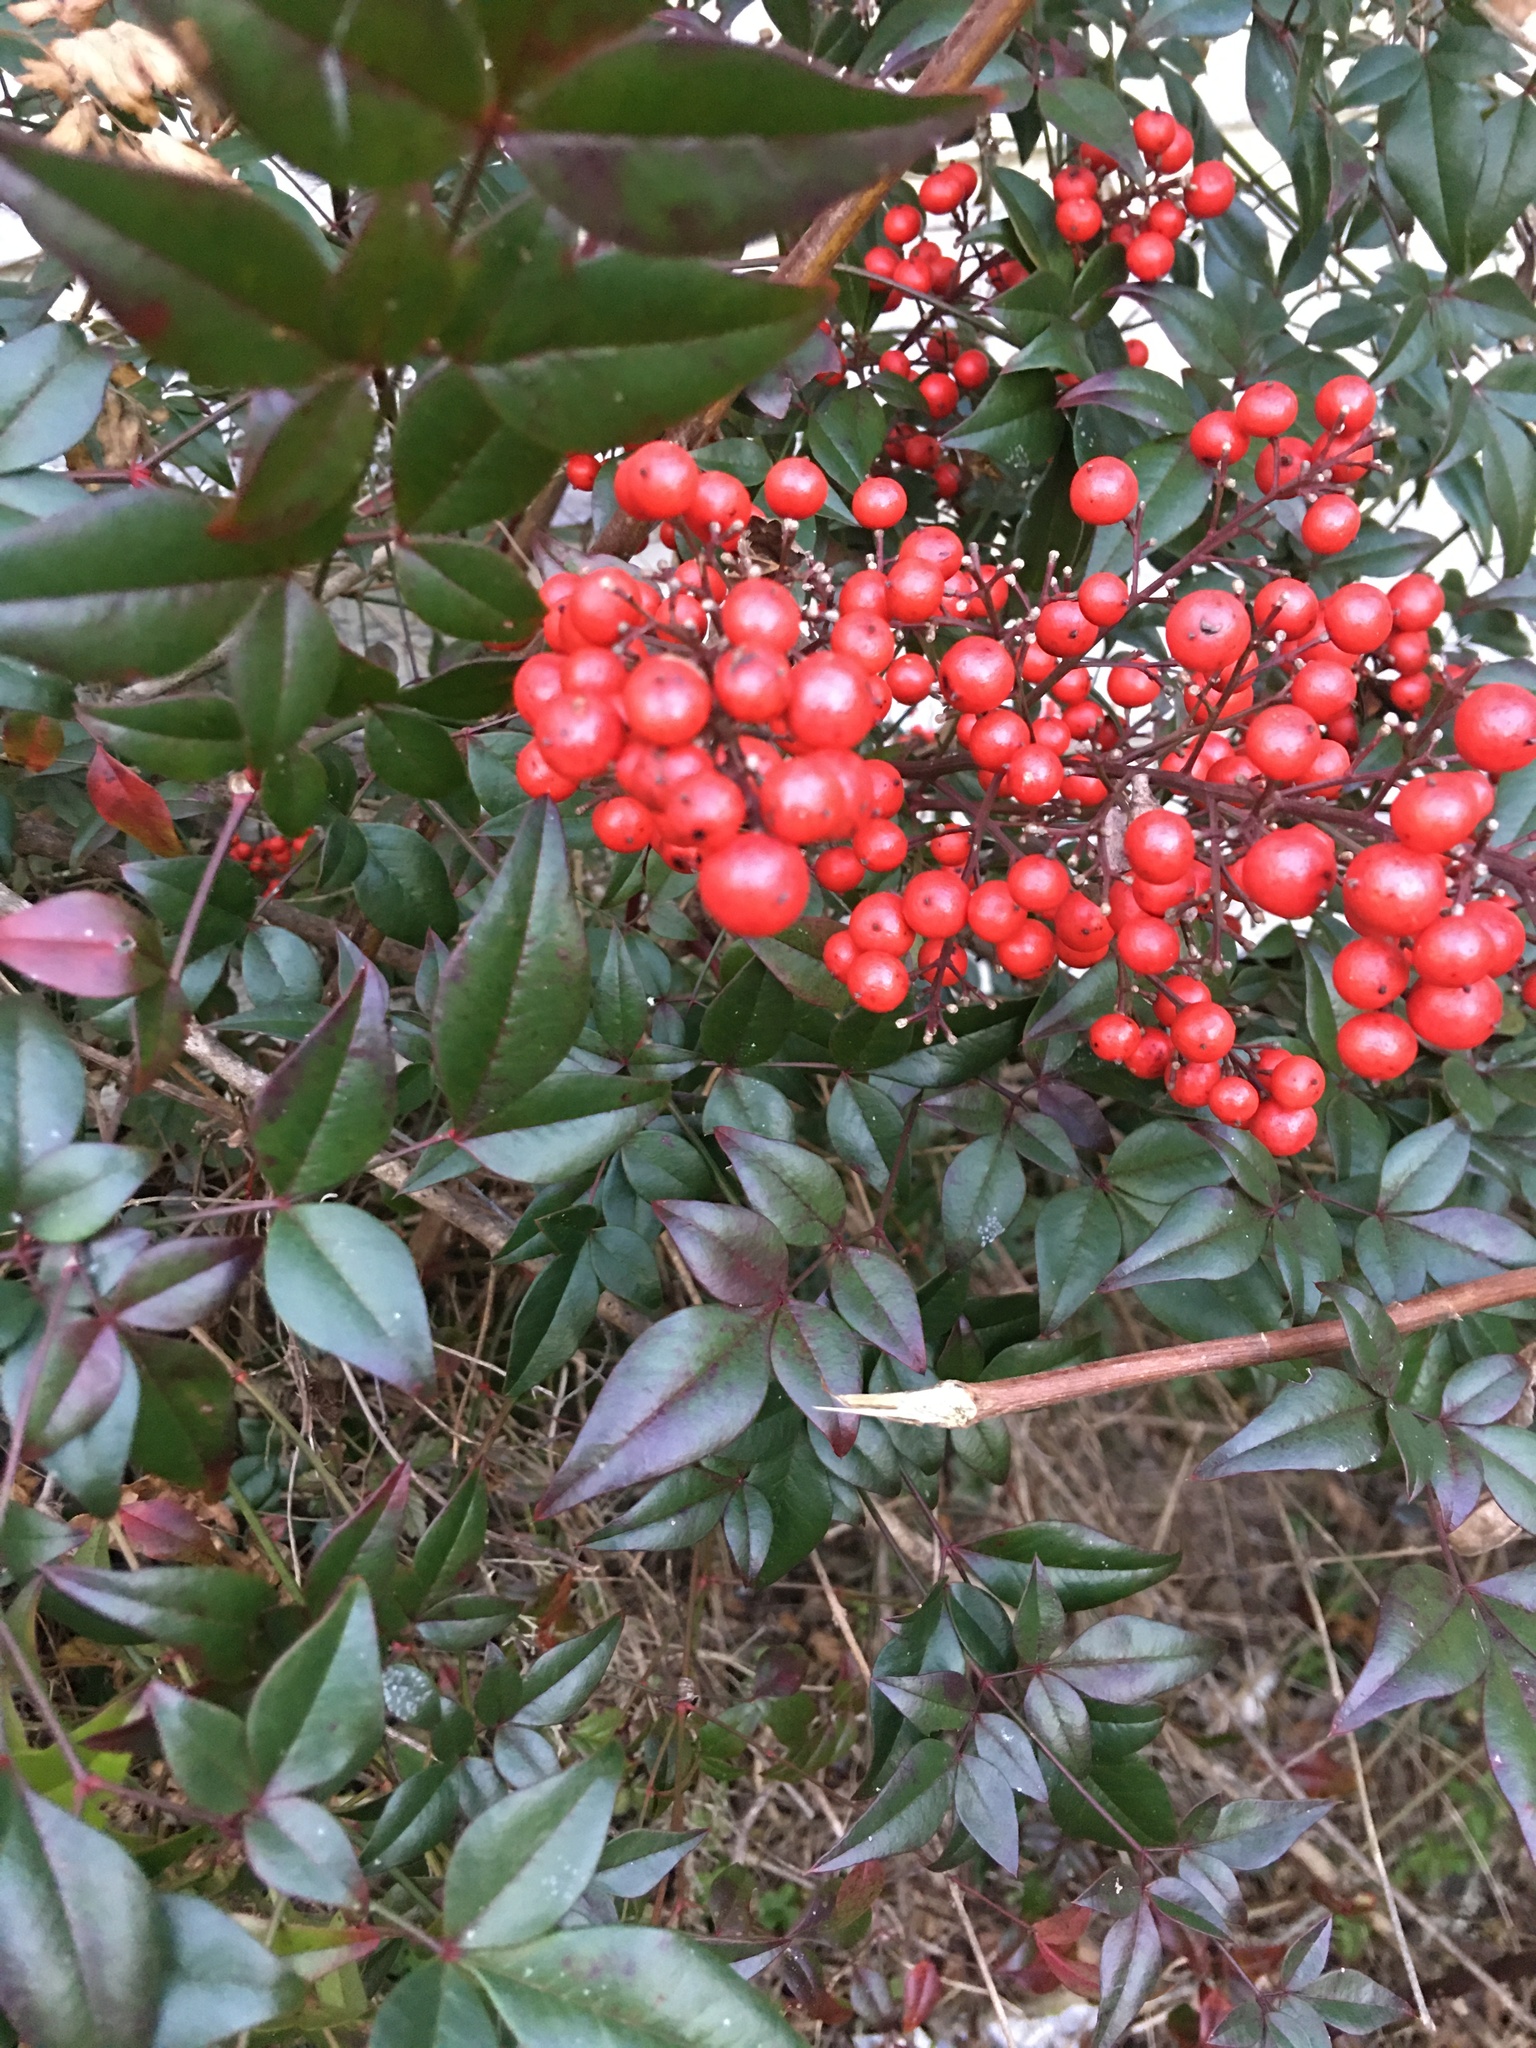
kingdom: Plantae
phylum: Tracheophyta
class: Magnoliopsida
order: Ranunculales
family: Berberidaceae
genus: Nandina
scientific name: Nandina domestica
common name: Sacred bamboo
